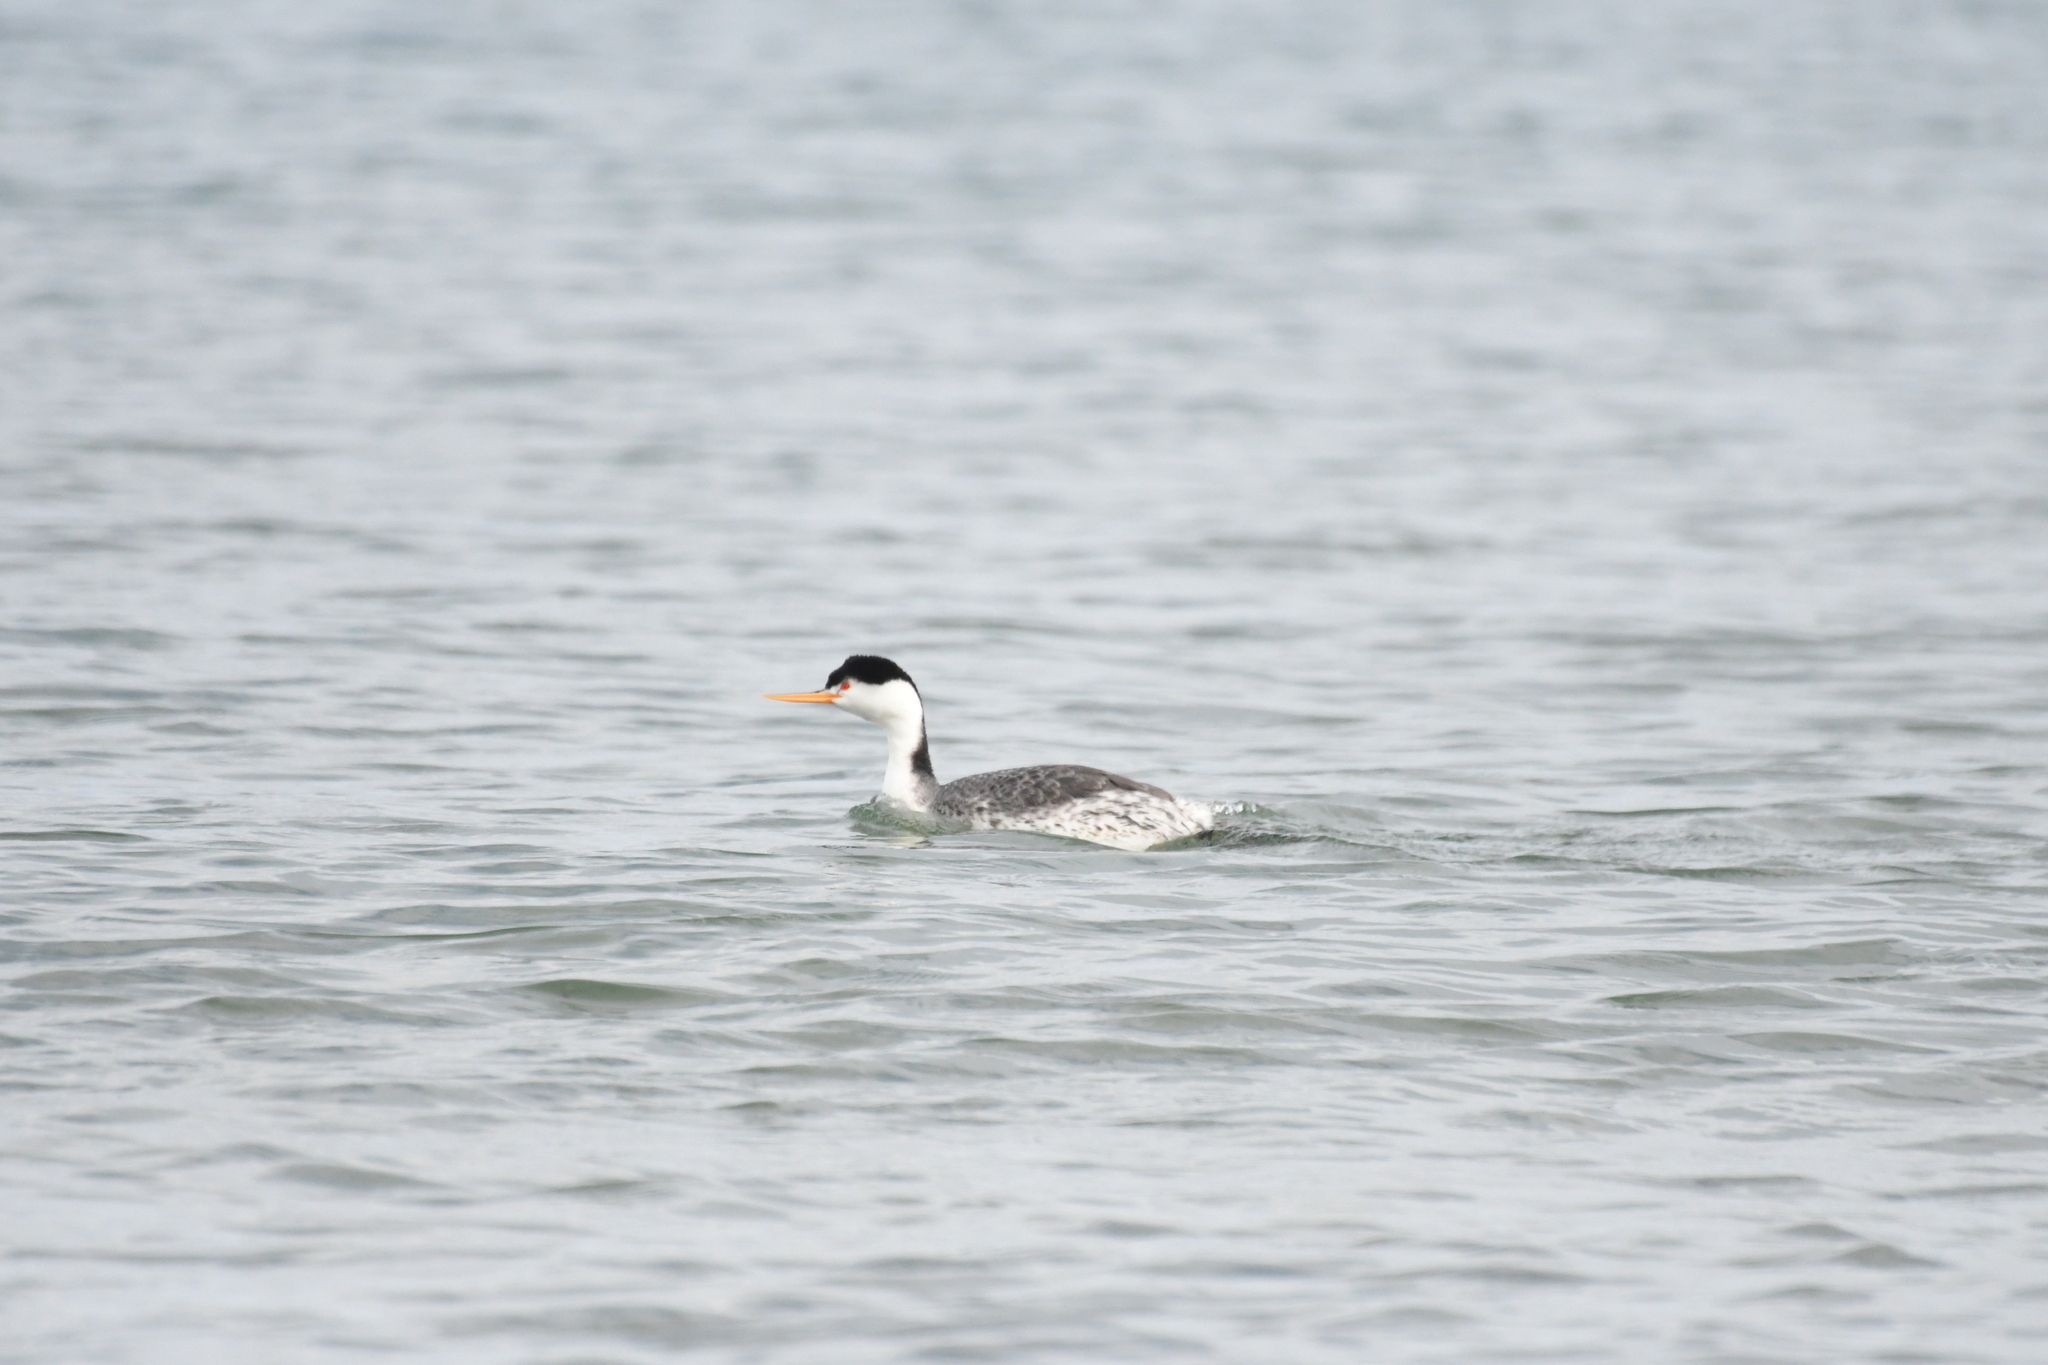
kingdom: Animalia
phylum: Chordata
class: Aves
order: Podicipediformes
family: Podicipedidae
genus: Aechmophorus
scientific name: Aechmophorus clarkii
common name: Clark's grebe
